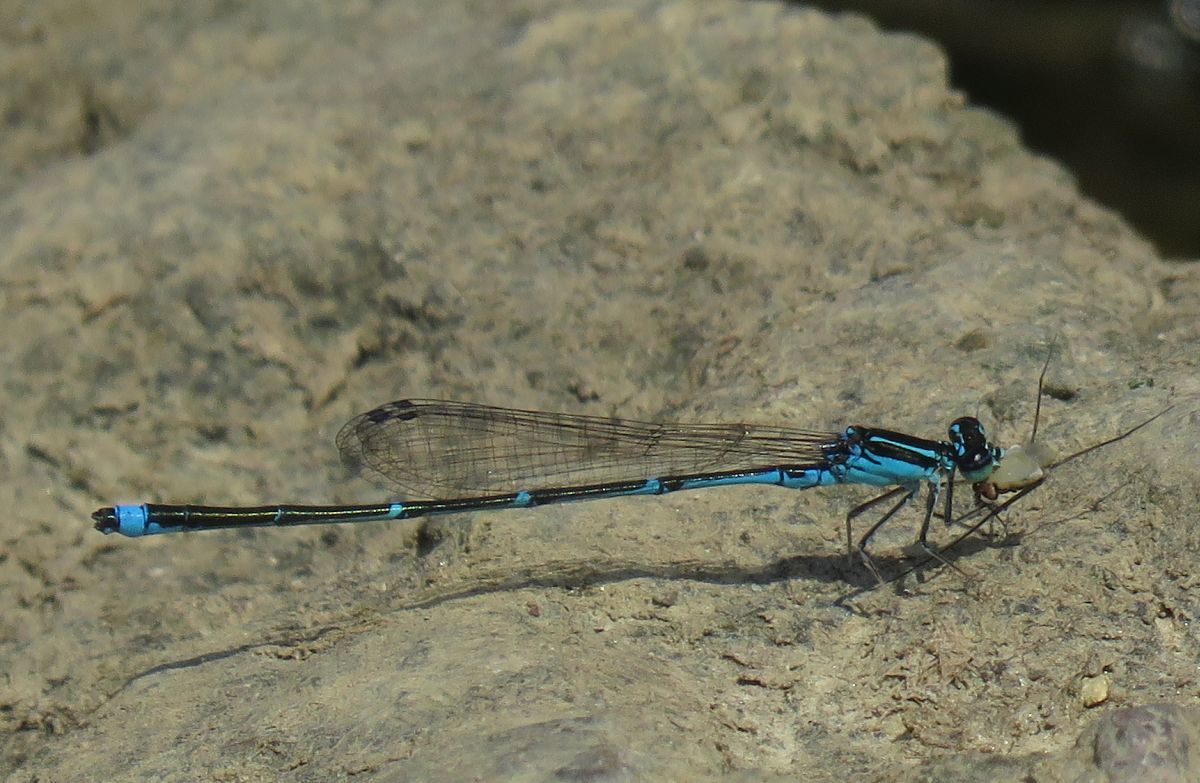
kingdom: Animalia
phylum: Arthropoda
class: Insecta
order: Odonata
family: Coenagrionidae
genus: Enallagma
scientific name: Enallagma exsulans
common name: Stream bluet
